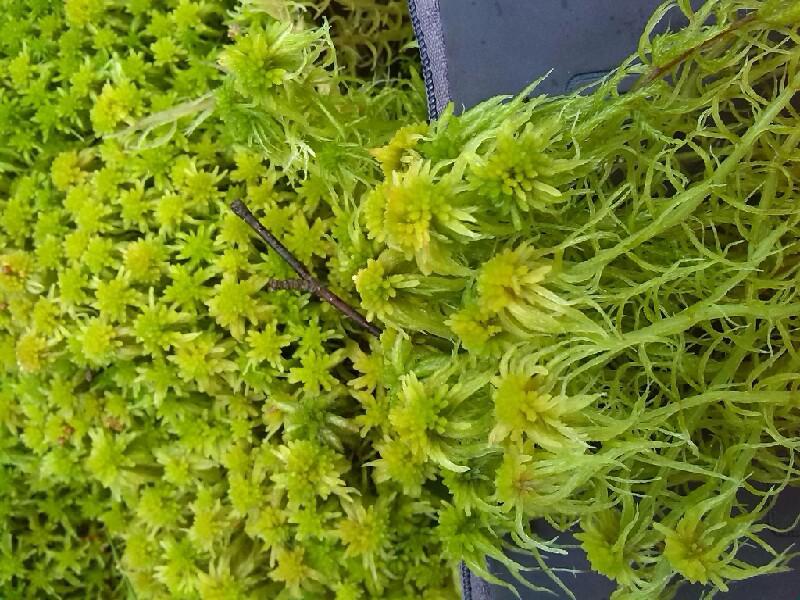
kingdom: Plantae
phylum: Bryophyta
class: Sphagnopsida
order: Sphagnales
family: Sphagnaceae
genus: Sphagnum
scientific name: Sphagnum fallax
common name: Flat-top peat moss
